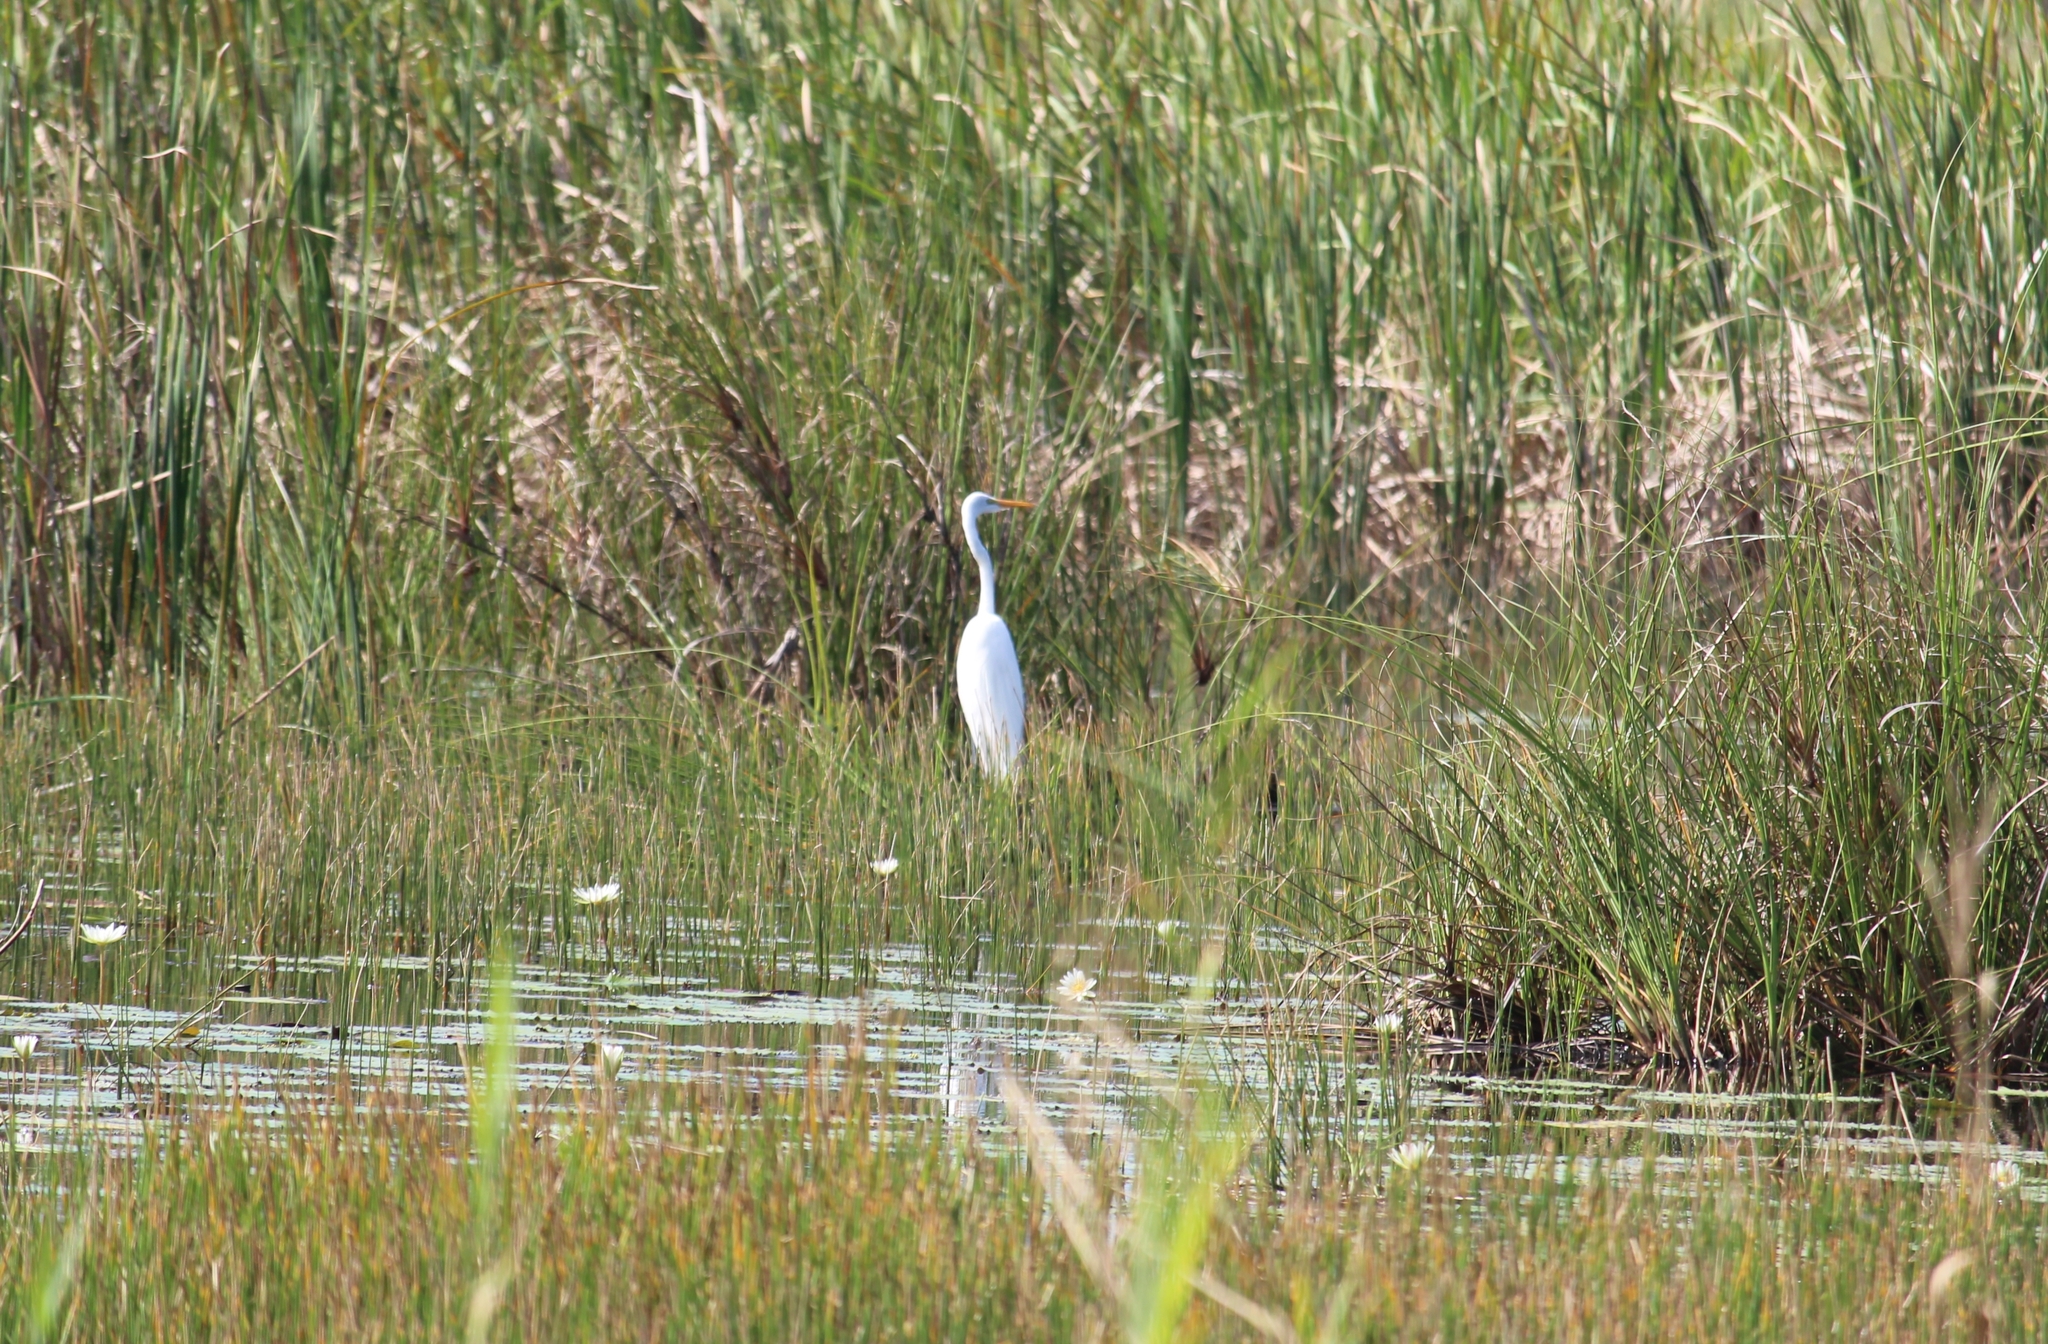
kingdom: Animalia
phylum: Chordata
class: Aves
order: Pelecaniformes
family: Ardeidae
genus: Ardea
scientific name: Ardea alba
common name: Great egret
